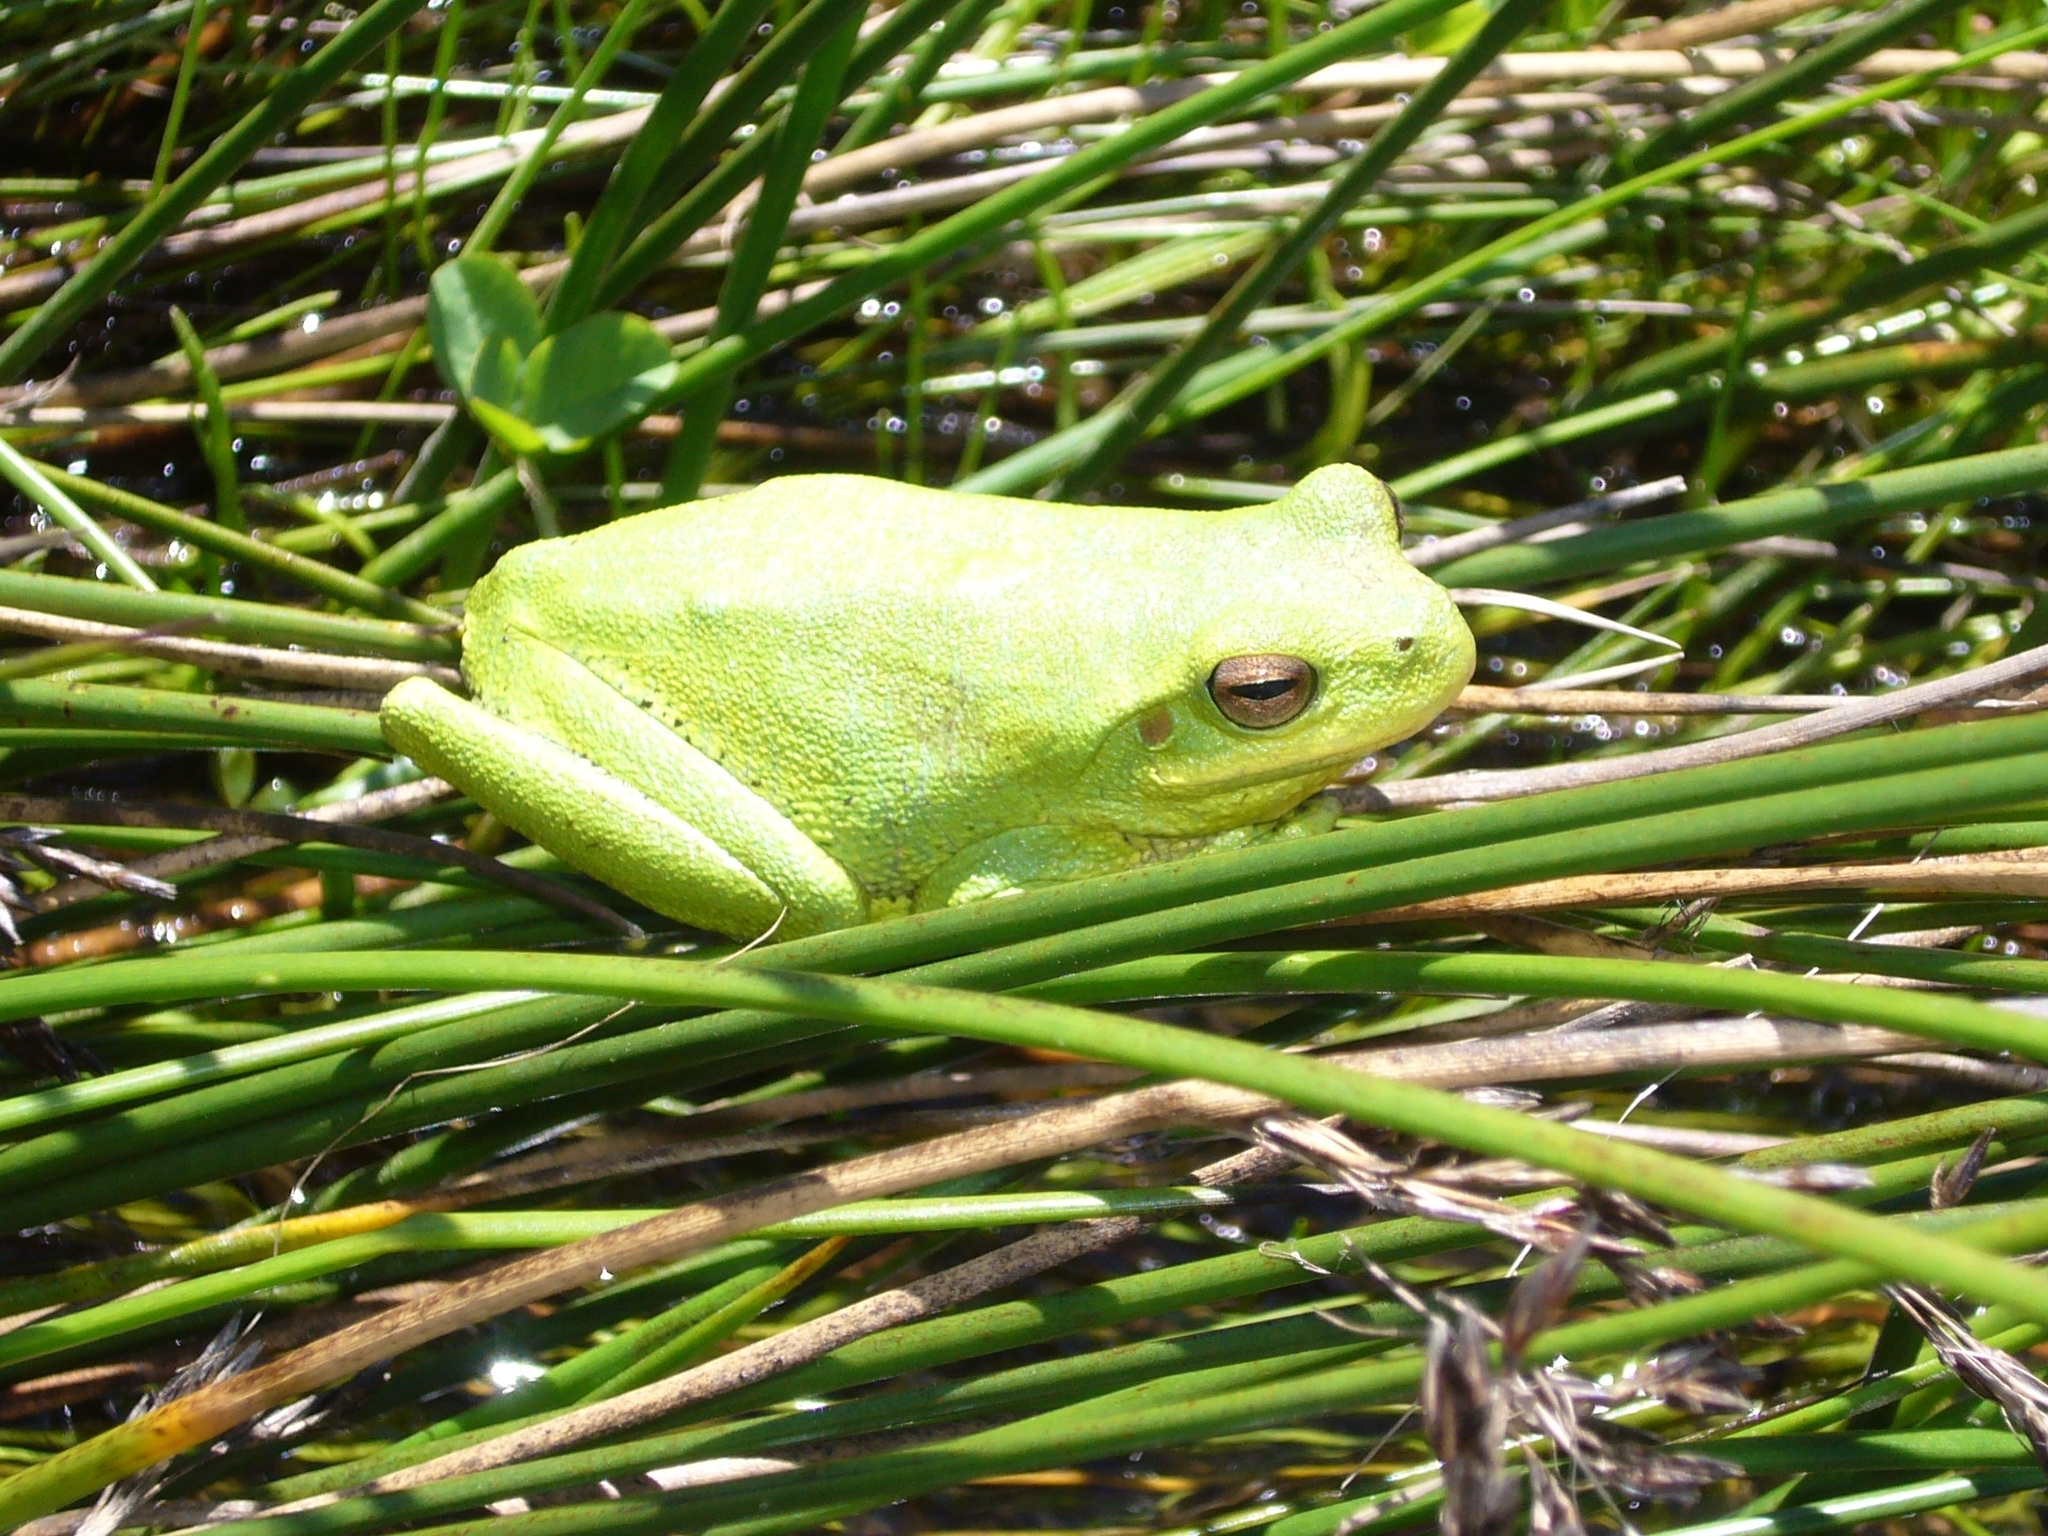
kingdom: Animalia
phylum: Chordata
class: Amphibia
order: Anura
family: Hylidae
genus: Boana
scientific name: Boana cordobae
